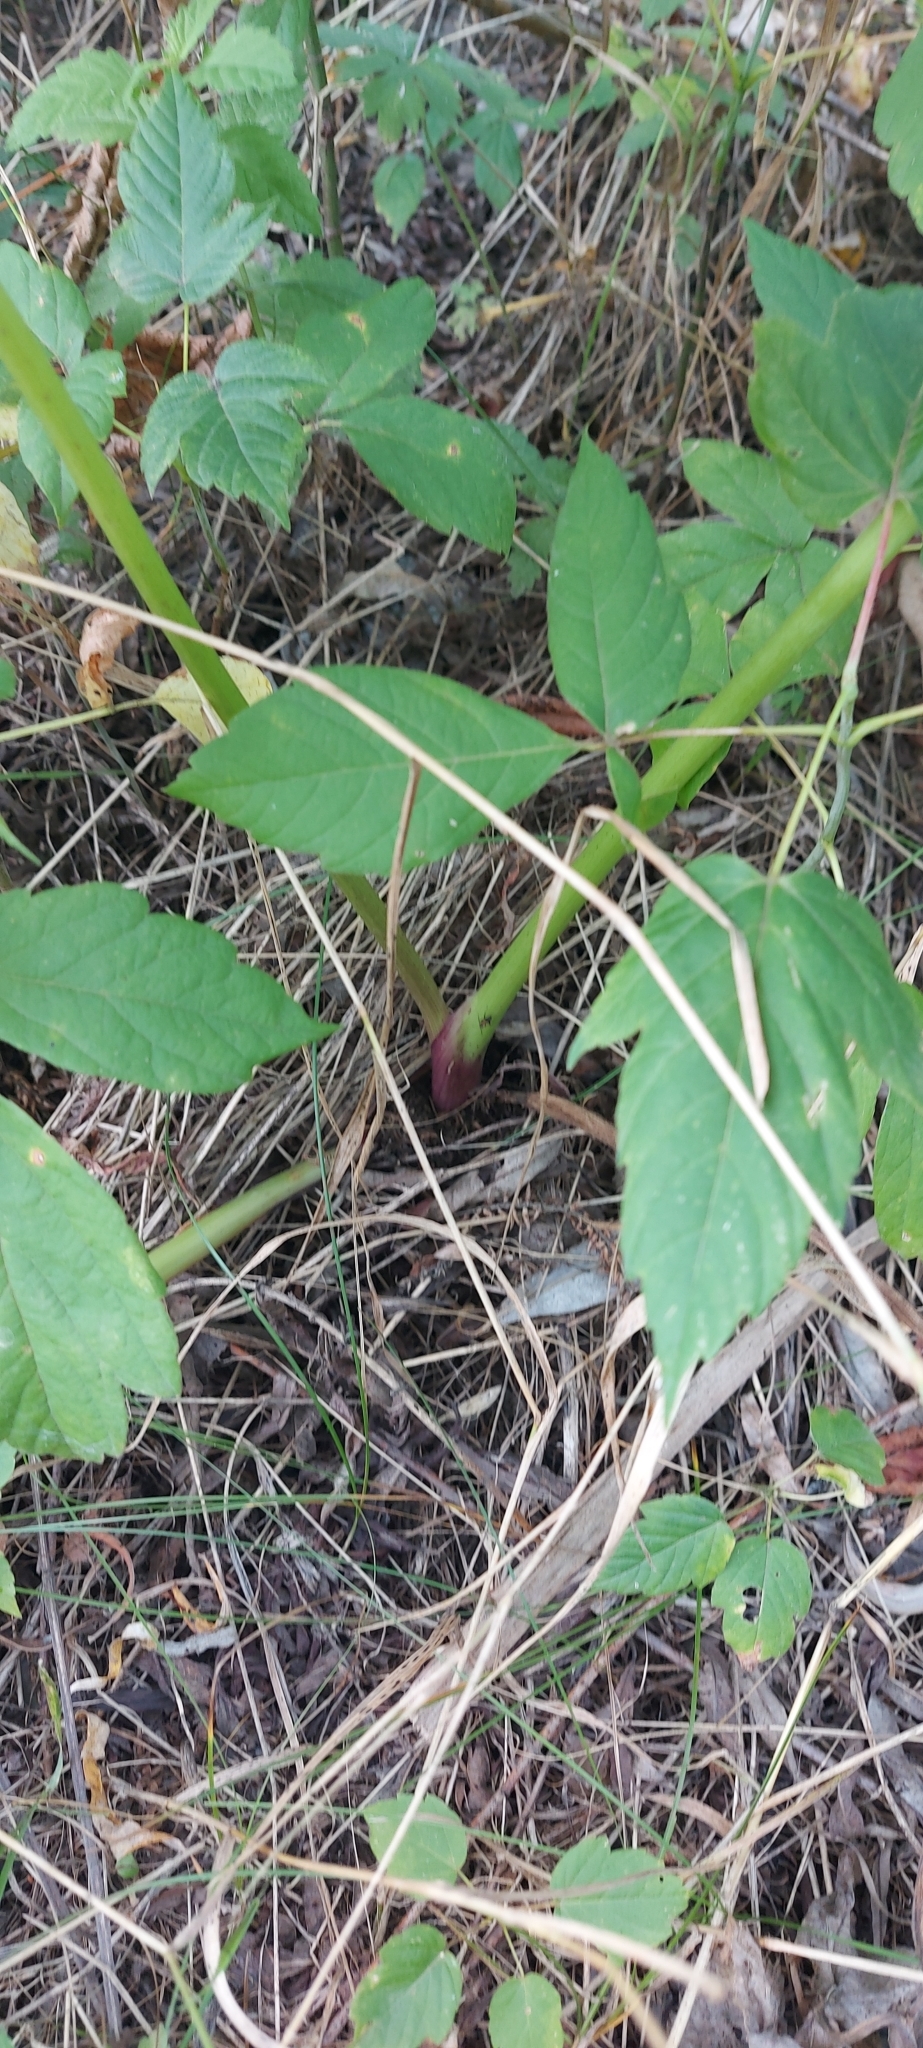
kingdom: Plantae
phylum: Tracheophyta
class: Magnoliopsida
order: Apiales
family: Apiaceae
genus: Aegopodium
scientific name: Aegopodium podagraria
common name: Ground-elder
